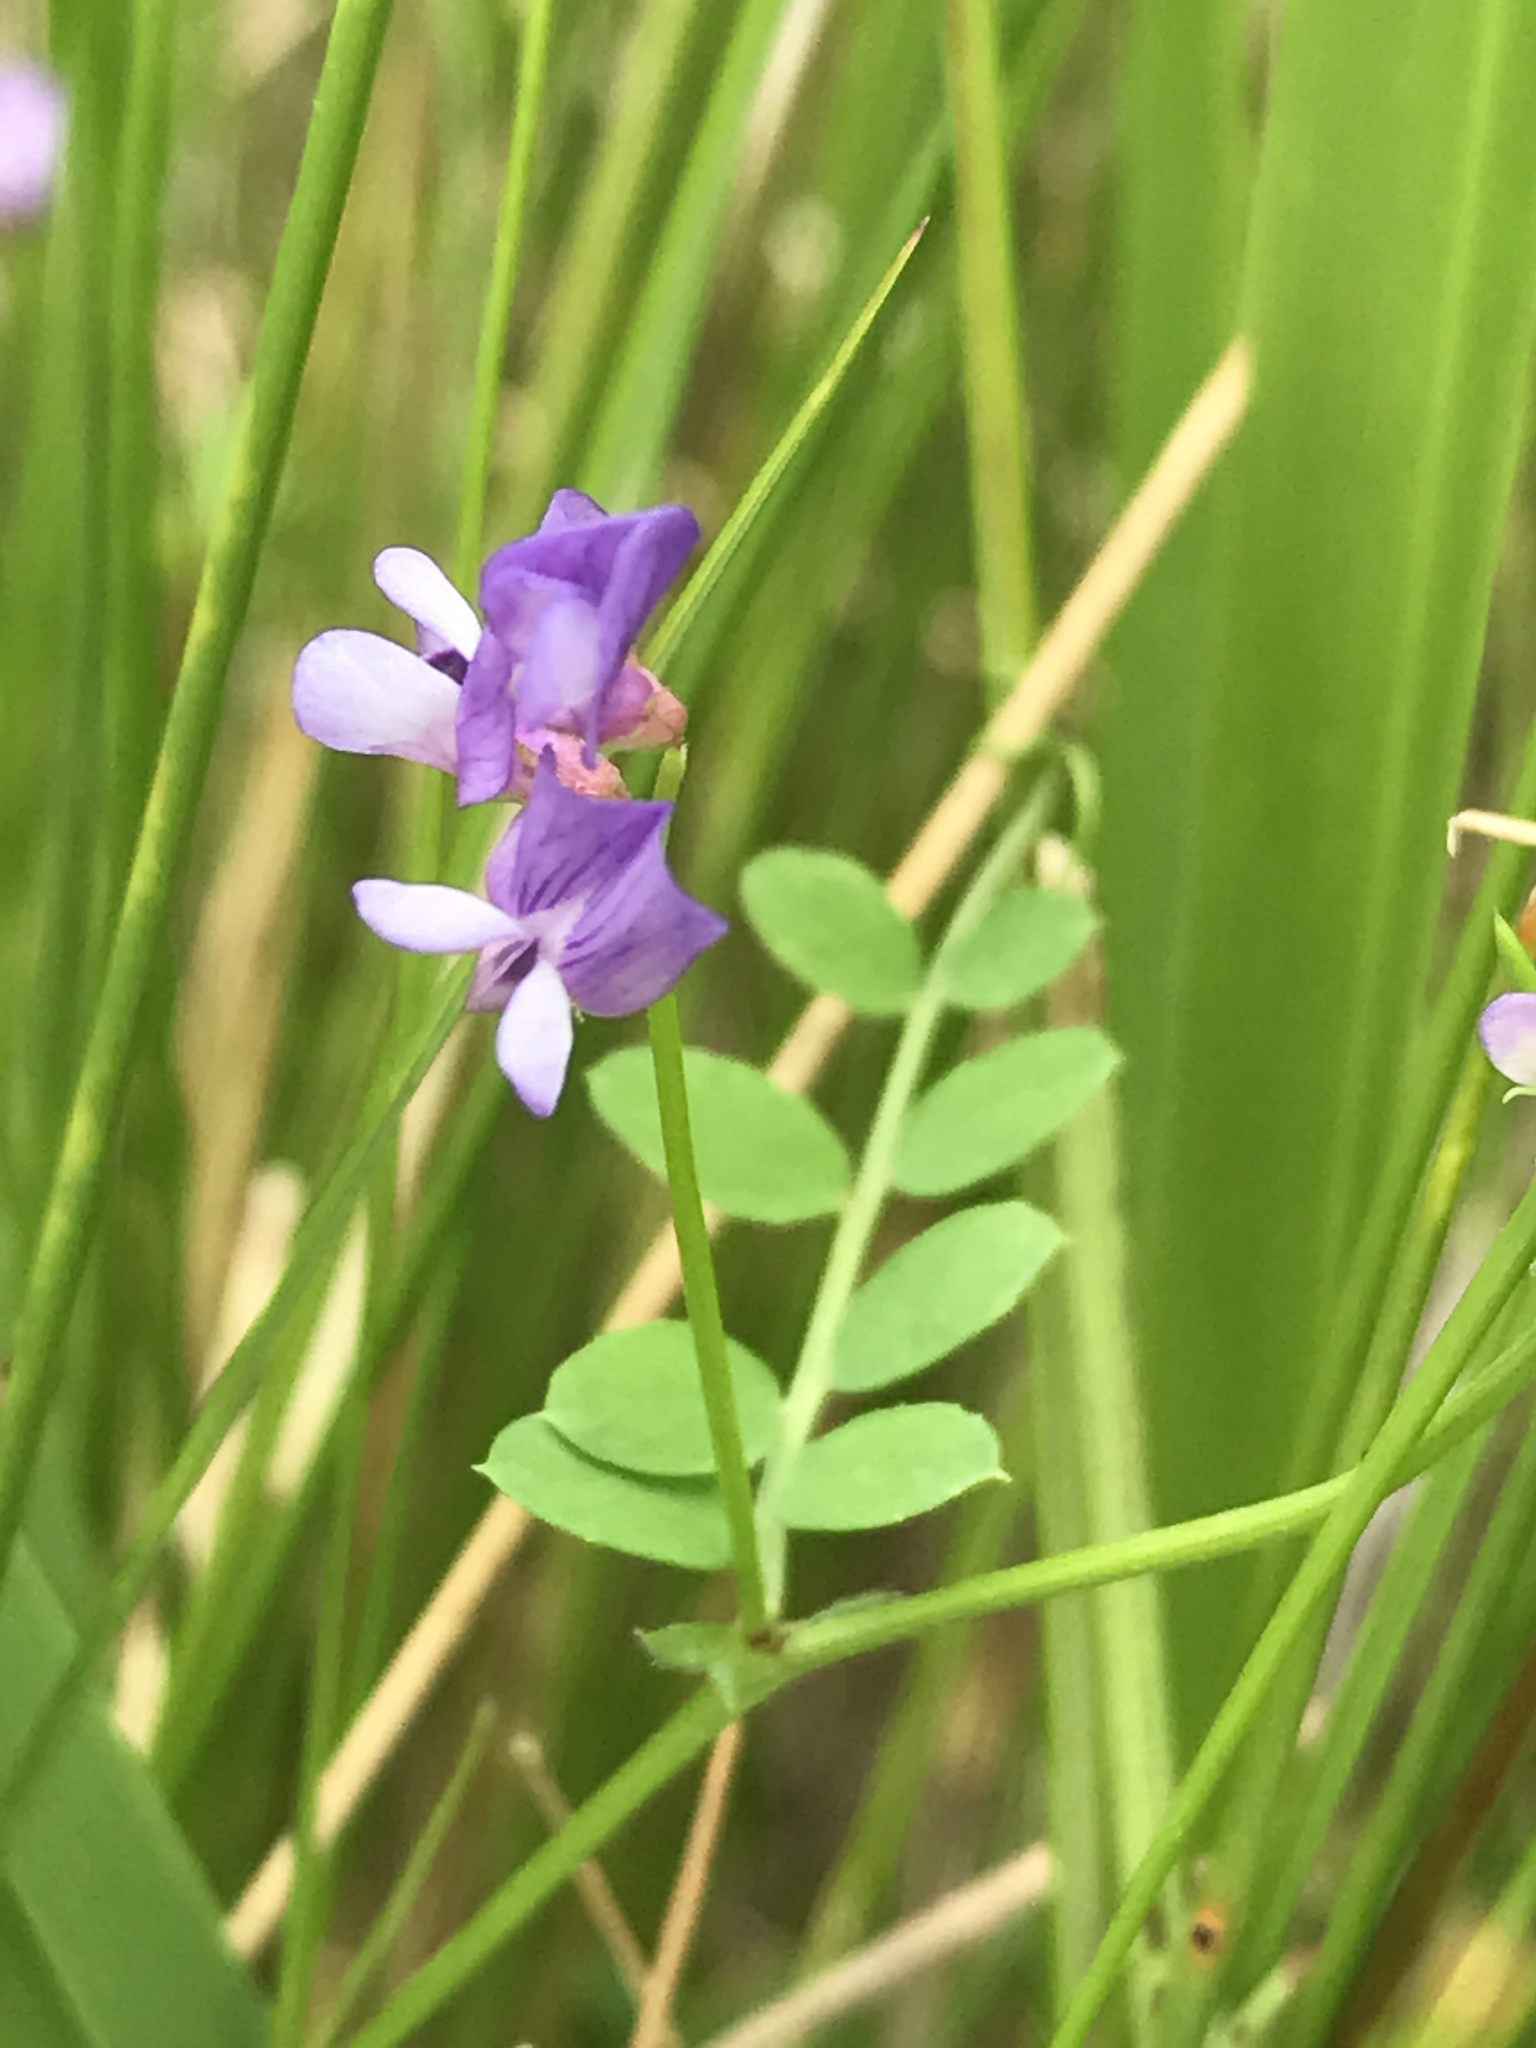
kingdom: Plantae
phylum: Tracheophyta
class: Magnoliopsida
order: Fabales
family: Fabaceae
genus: Vicia
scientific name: Vicia ludoviciana
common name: Louisiana vetch
